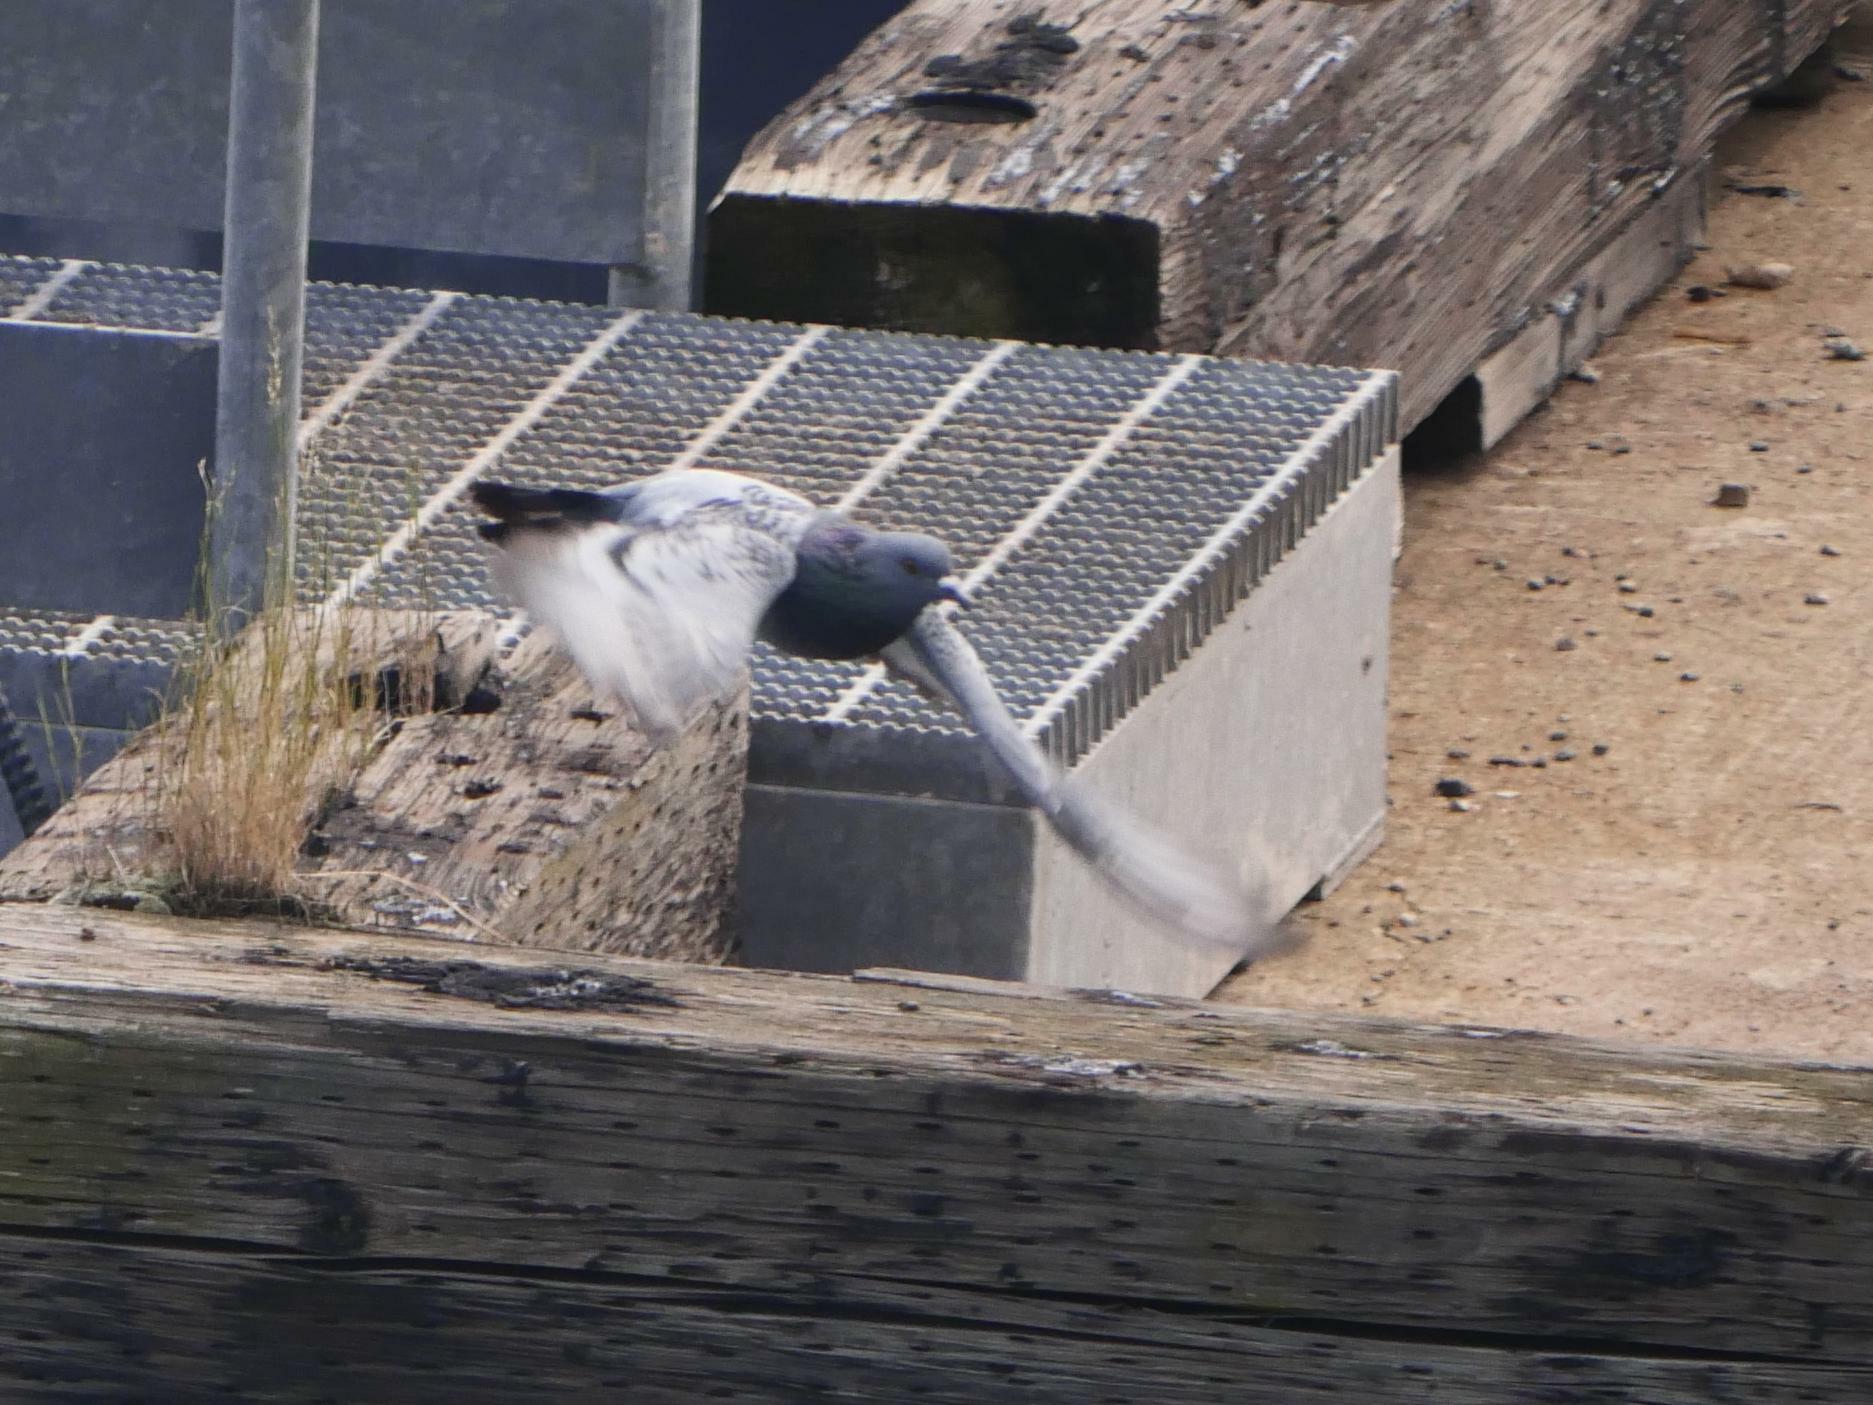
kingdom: Animalia
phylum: Chordata
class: Aves
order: Columbiformes
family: Columbidae
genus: Columba
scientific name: Columba livia
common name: Rock pigeon
